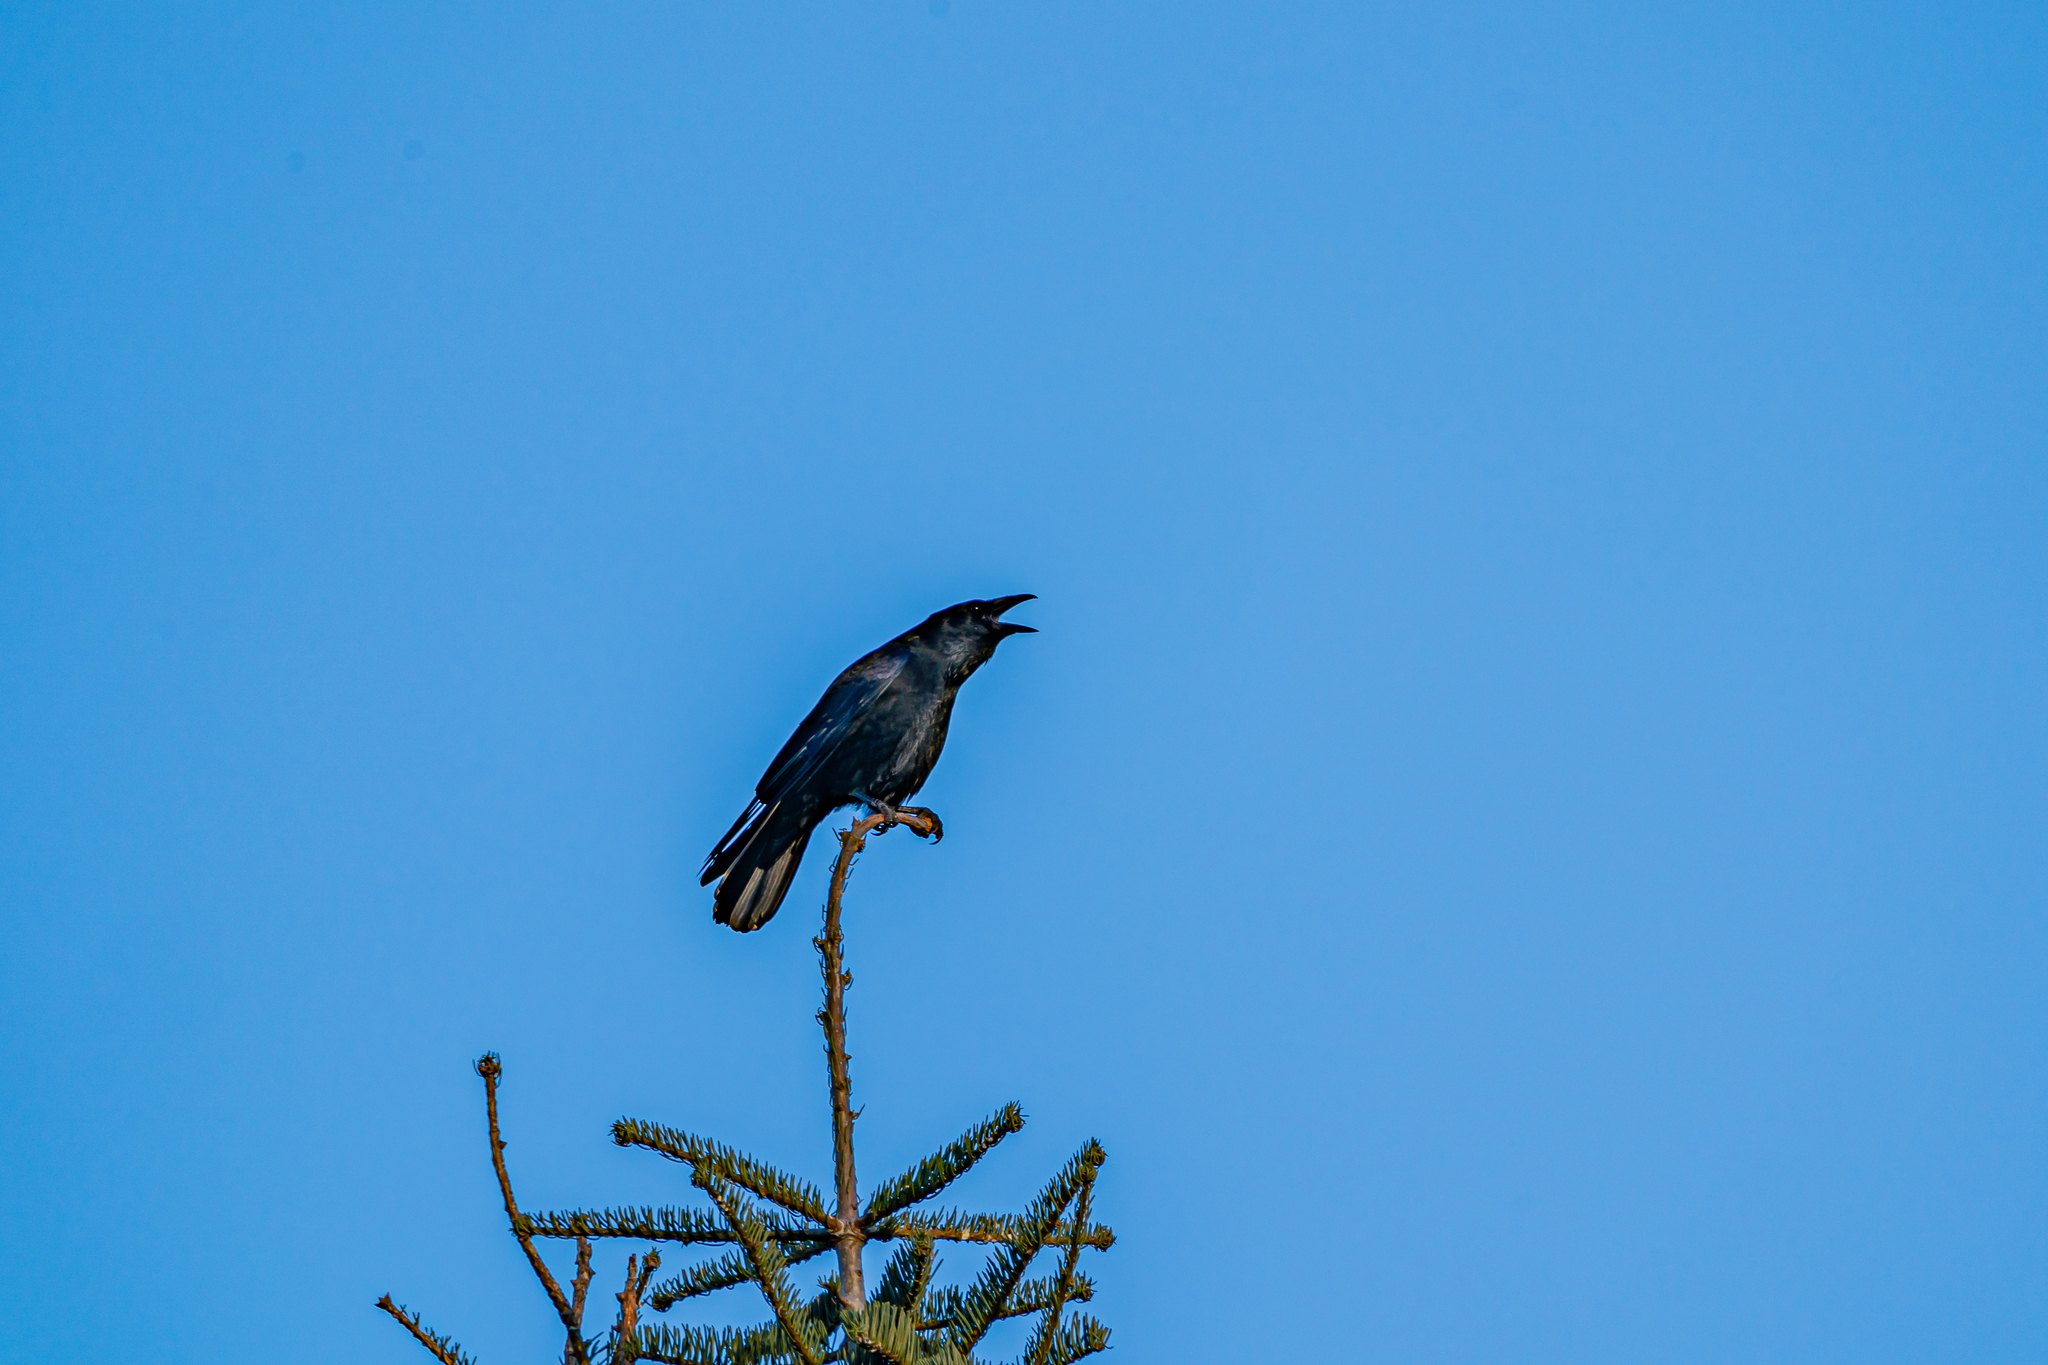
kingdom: Animalia
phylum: Chordata
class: Aves
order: Passeriformes
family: Corvidae
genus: Corvus
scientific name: Corvus corone
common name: Carrion crow
